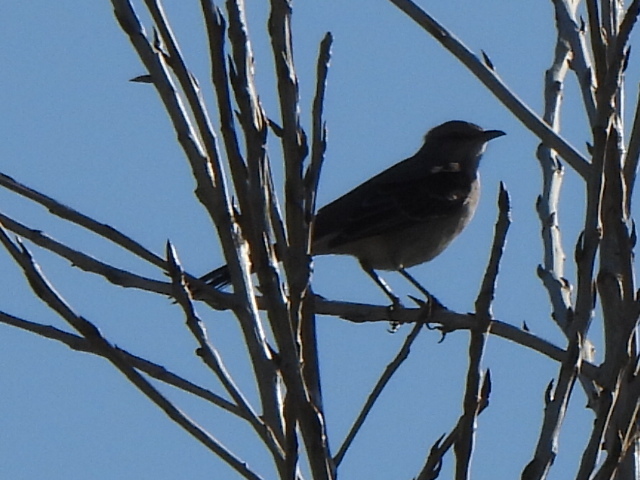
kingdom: Animalia
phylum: Chordata
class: Aves
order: Passeriformes
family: Mimidae
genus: Mimus
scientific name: Mimus polyglottos
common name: Northern mockingbird
